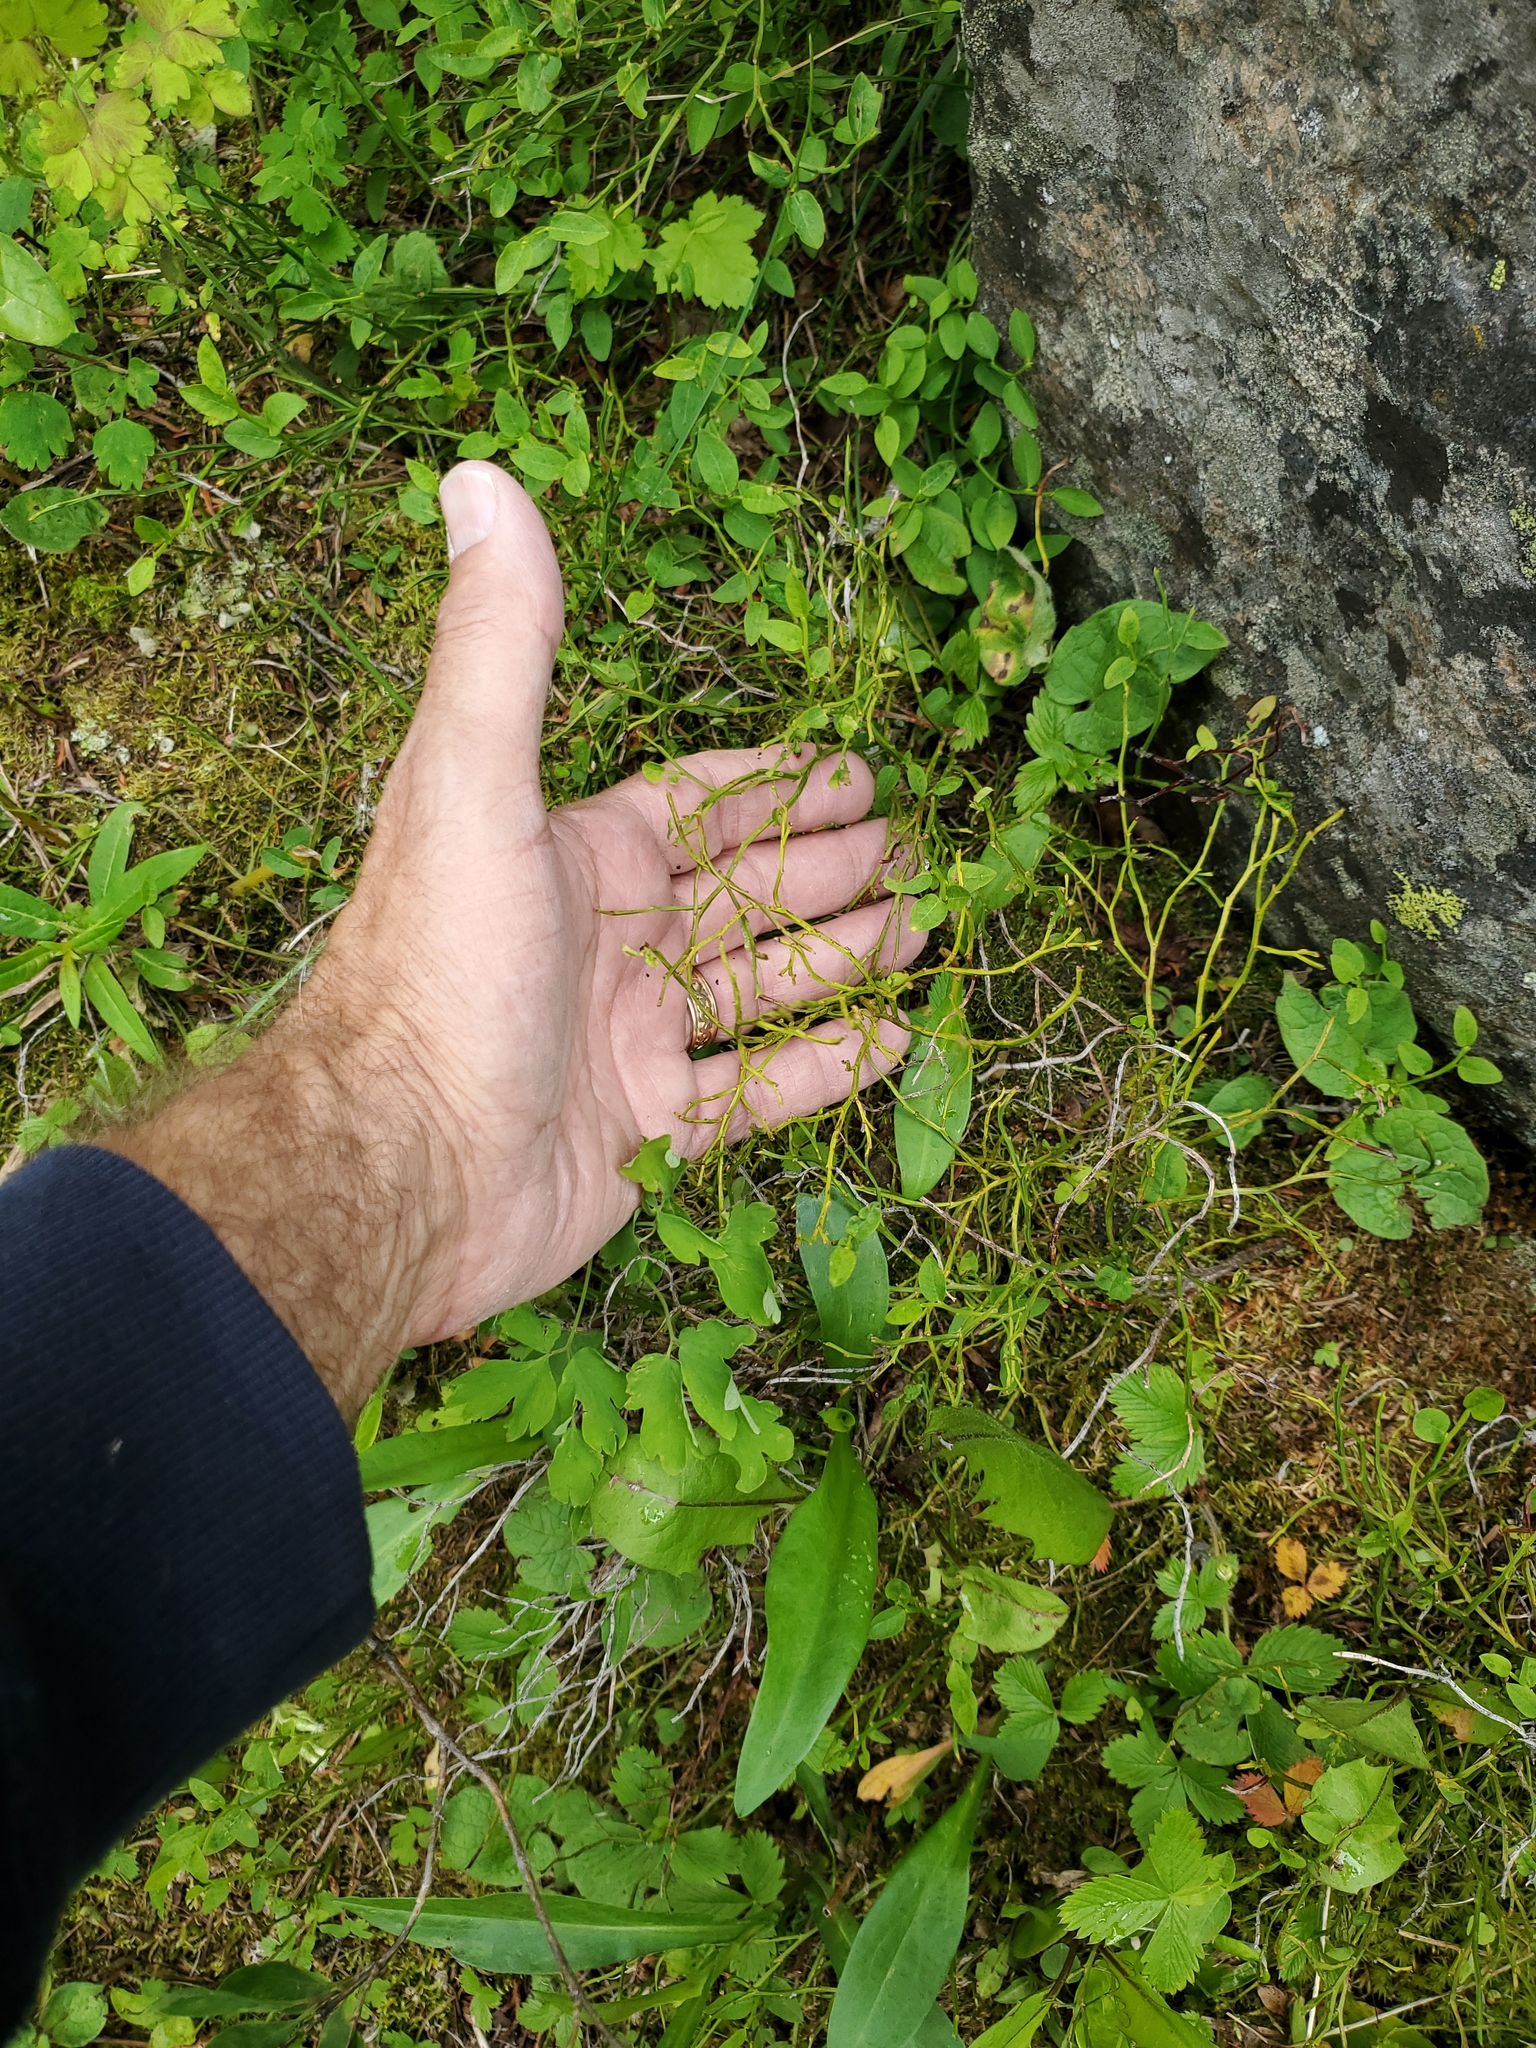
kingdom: Plantae
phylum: Tracheophyta
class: Magnoliopsida
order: Ericales
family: Ericaceae
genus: Vaccinium
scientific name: Vaccinium scoparium
